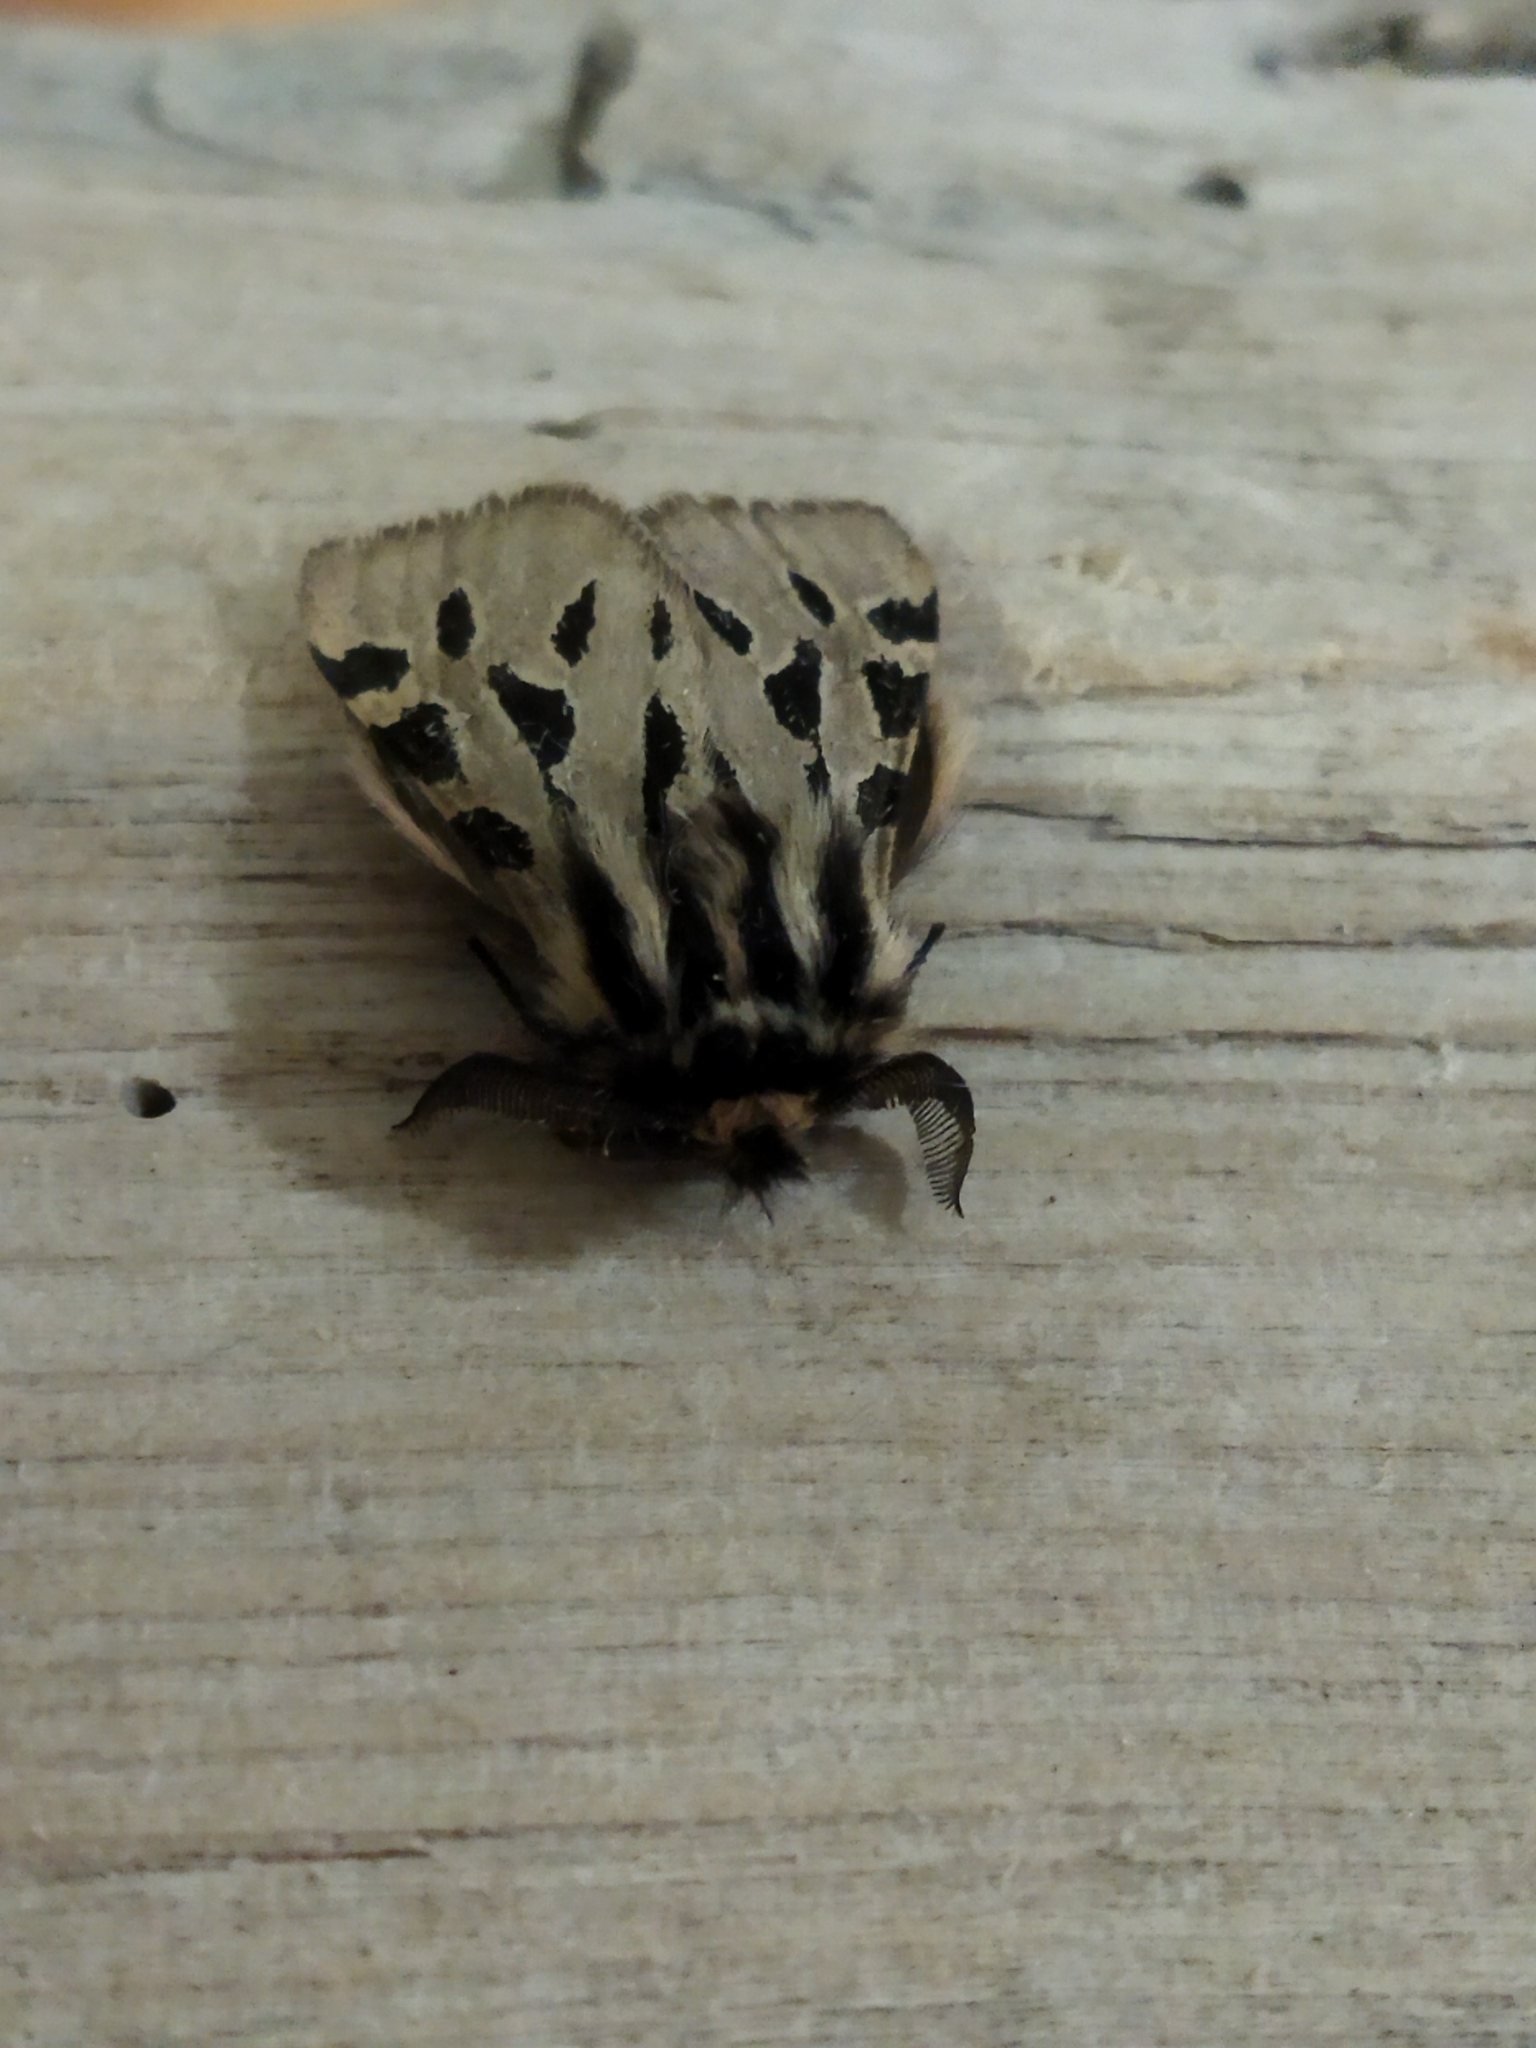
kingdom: Animalia
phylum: Arthropoda
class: Insecta
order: Lepidoptera
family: Erebidae
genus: Ocnogyna
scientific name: Ocnogyna parasita
